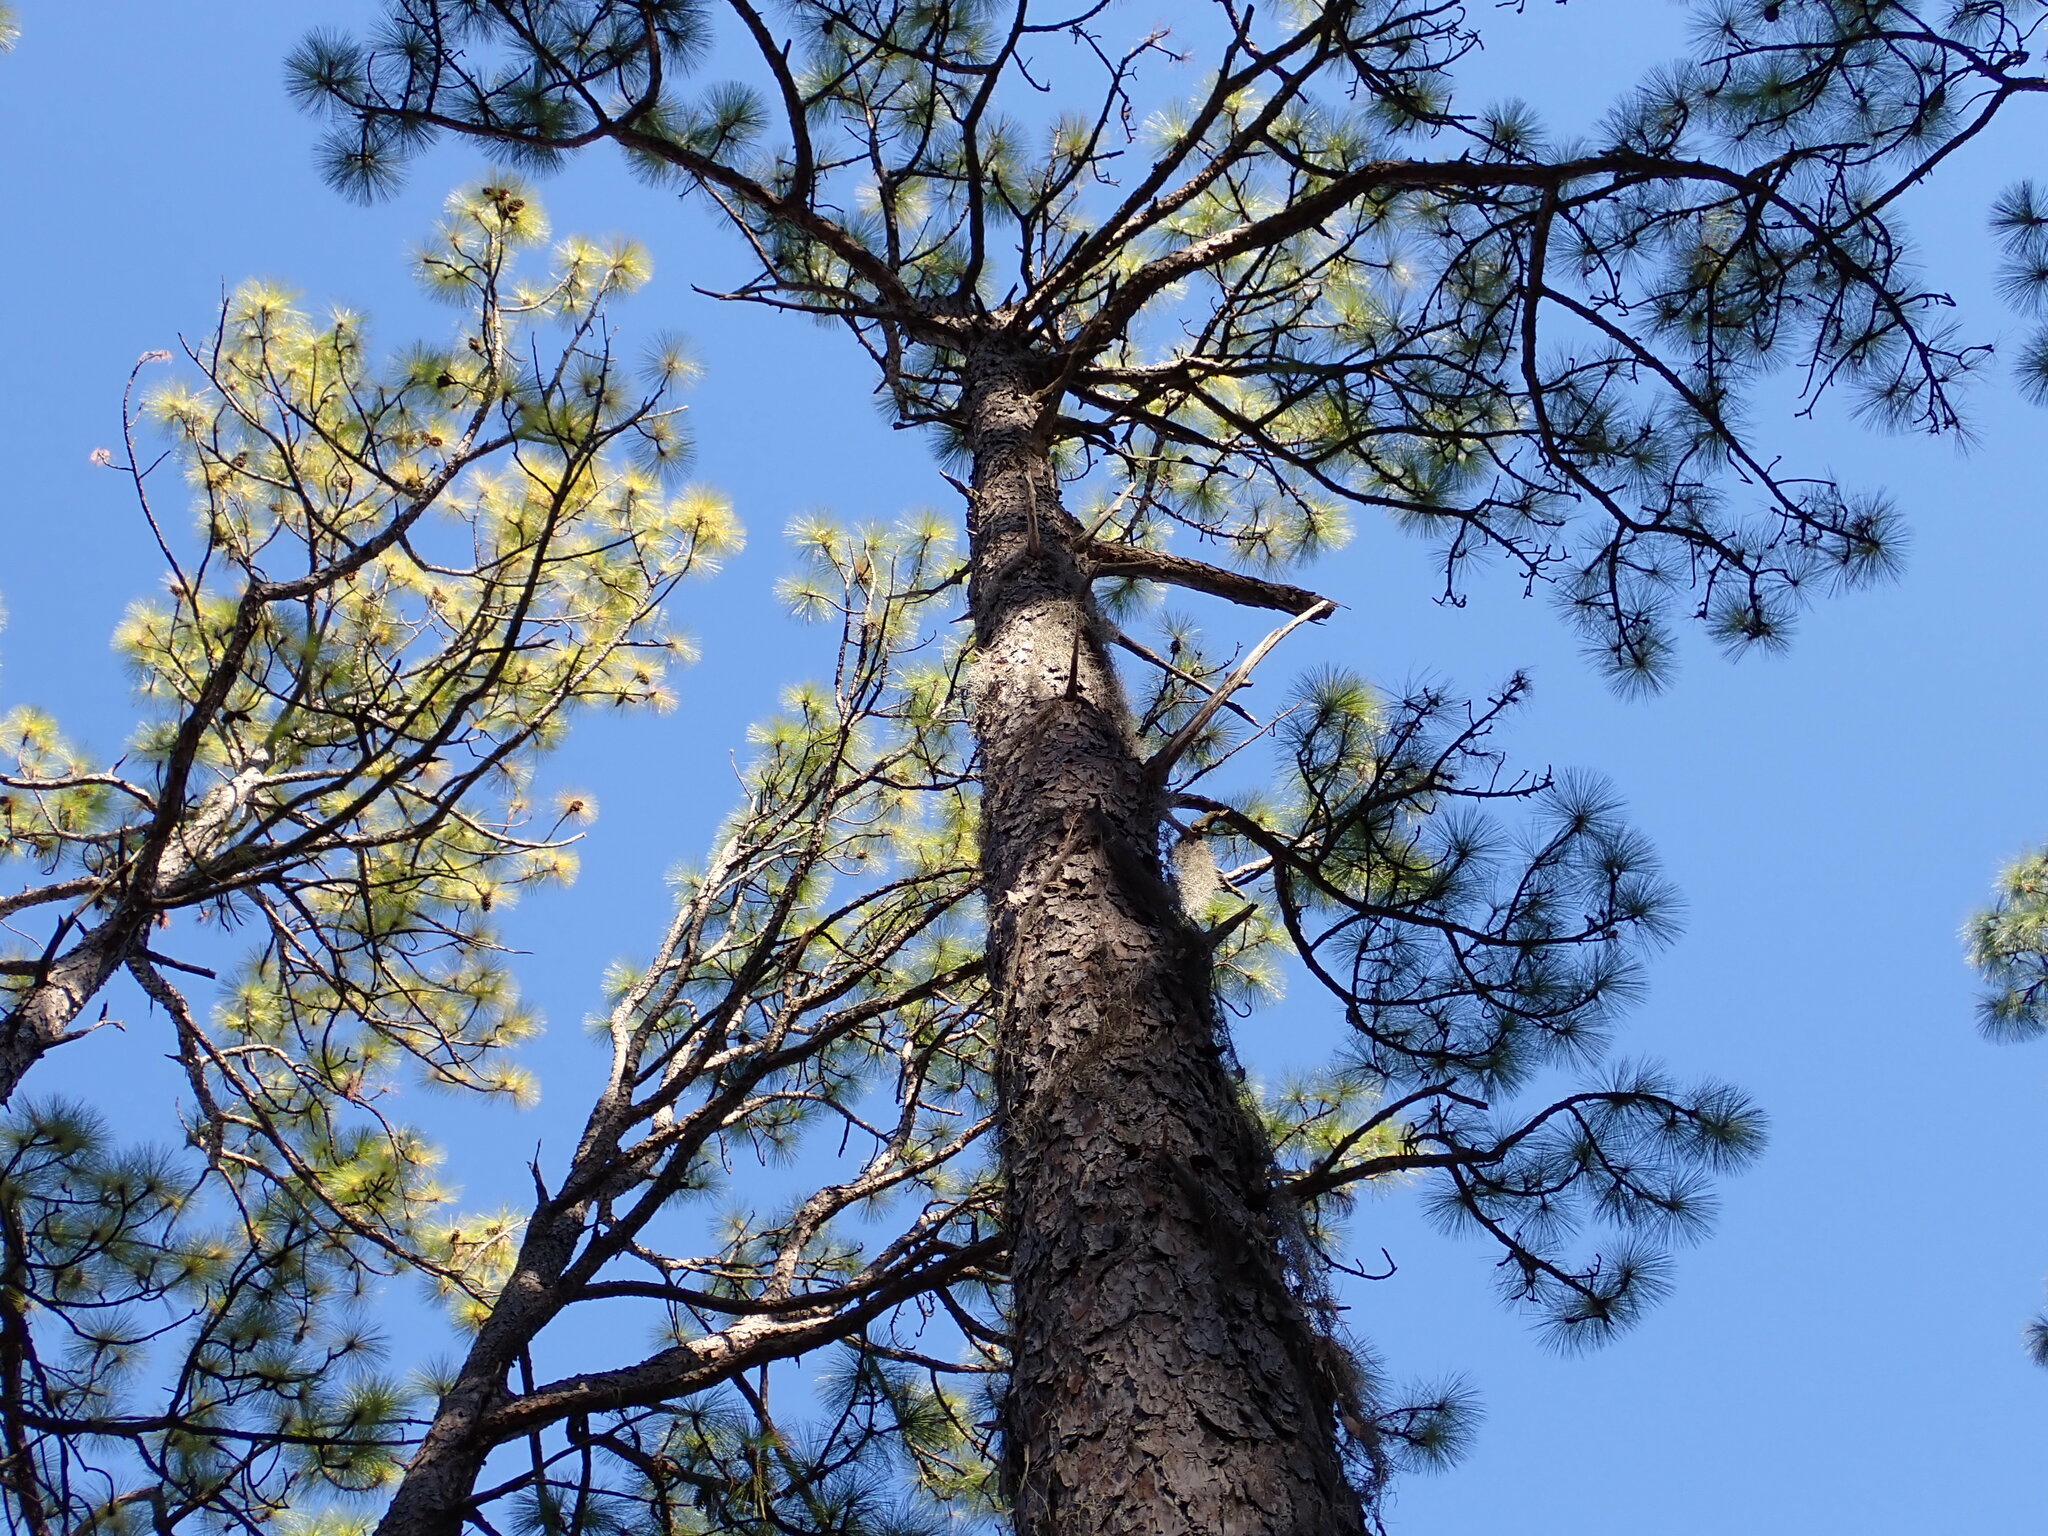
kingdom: Plantae
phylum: Tracheophyta
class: Pinopsida
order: Pinales
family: Pinaceae
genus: Pinus
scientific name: Pinus palustris
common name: Longleaf pine
